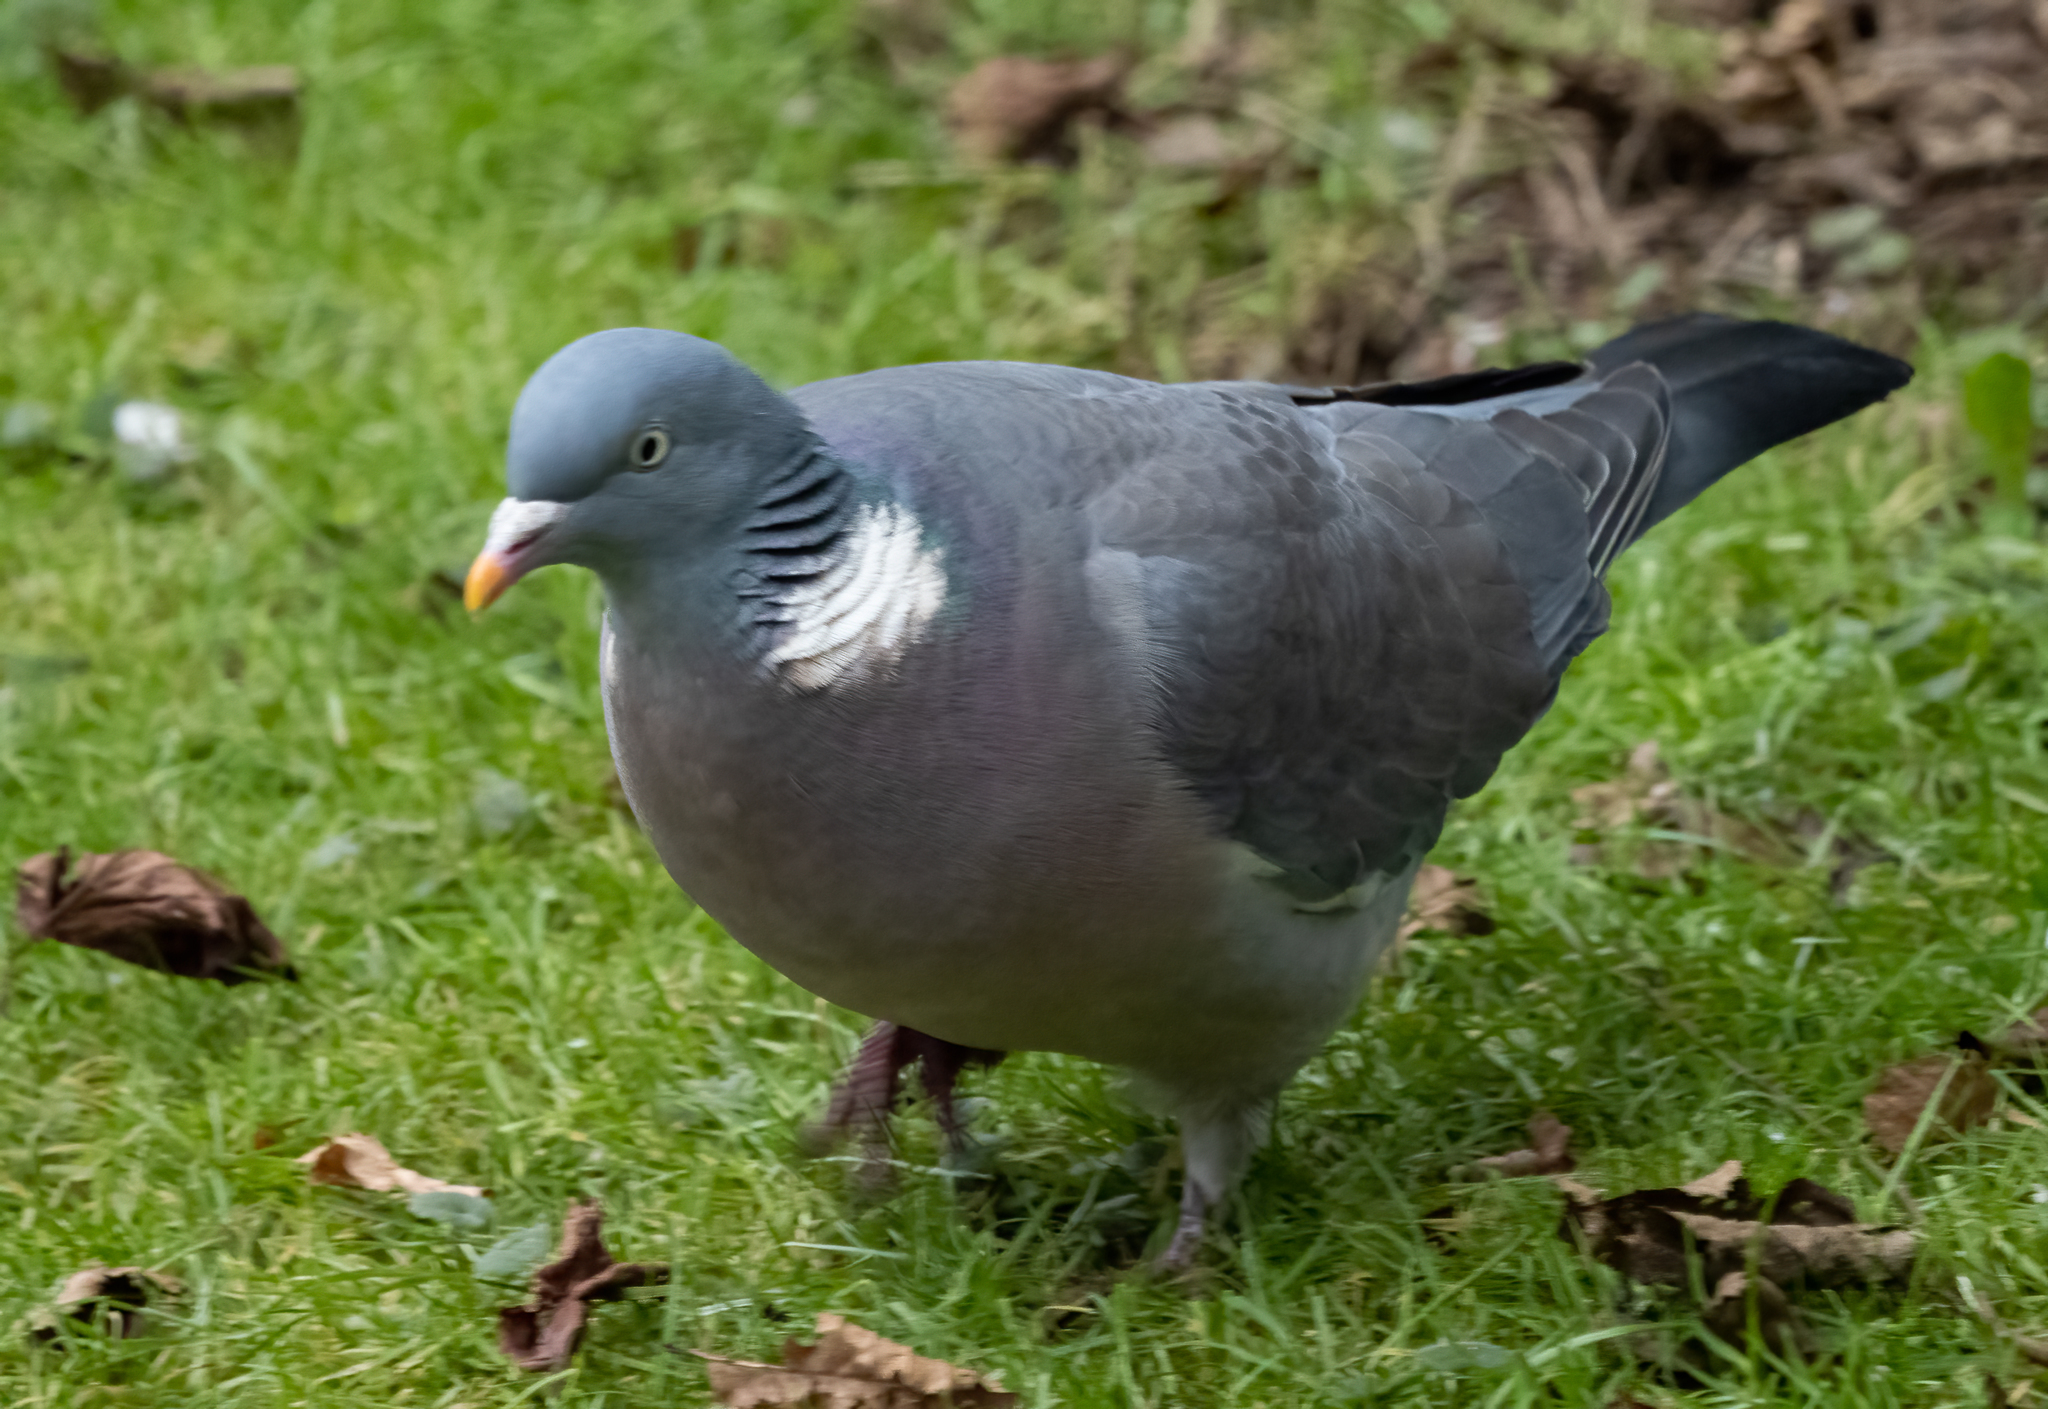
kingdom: Animalia
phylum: Chordata
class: Aves
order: Columbiformes
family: Columbidae
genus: Columba
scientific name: Columba palumbus
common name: Common wood pigeon
